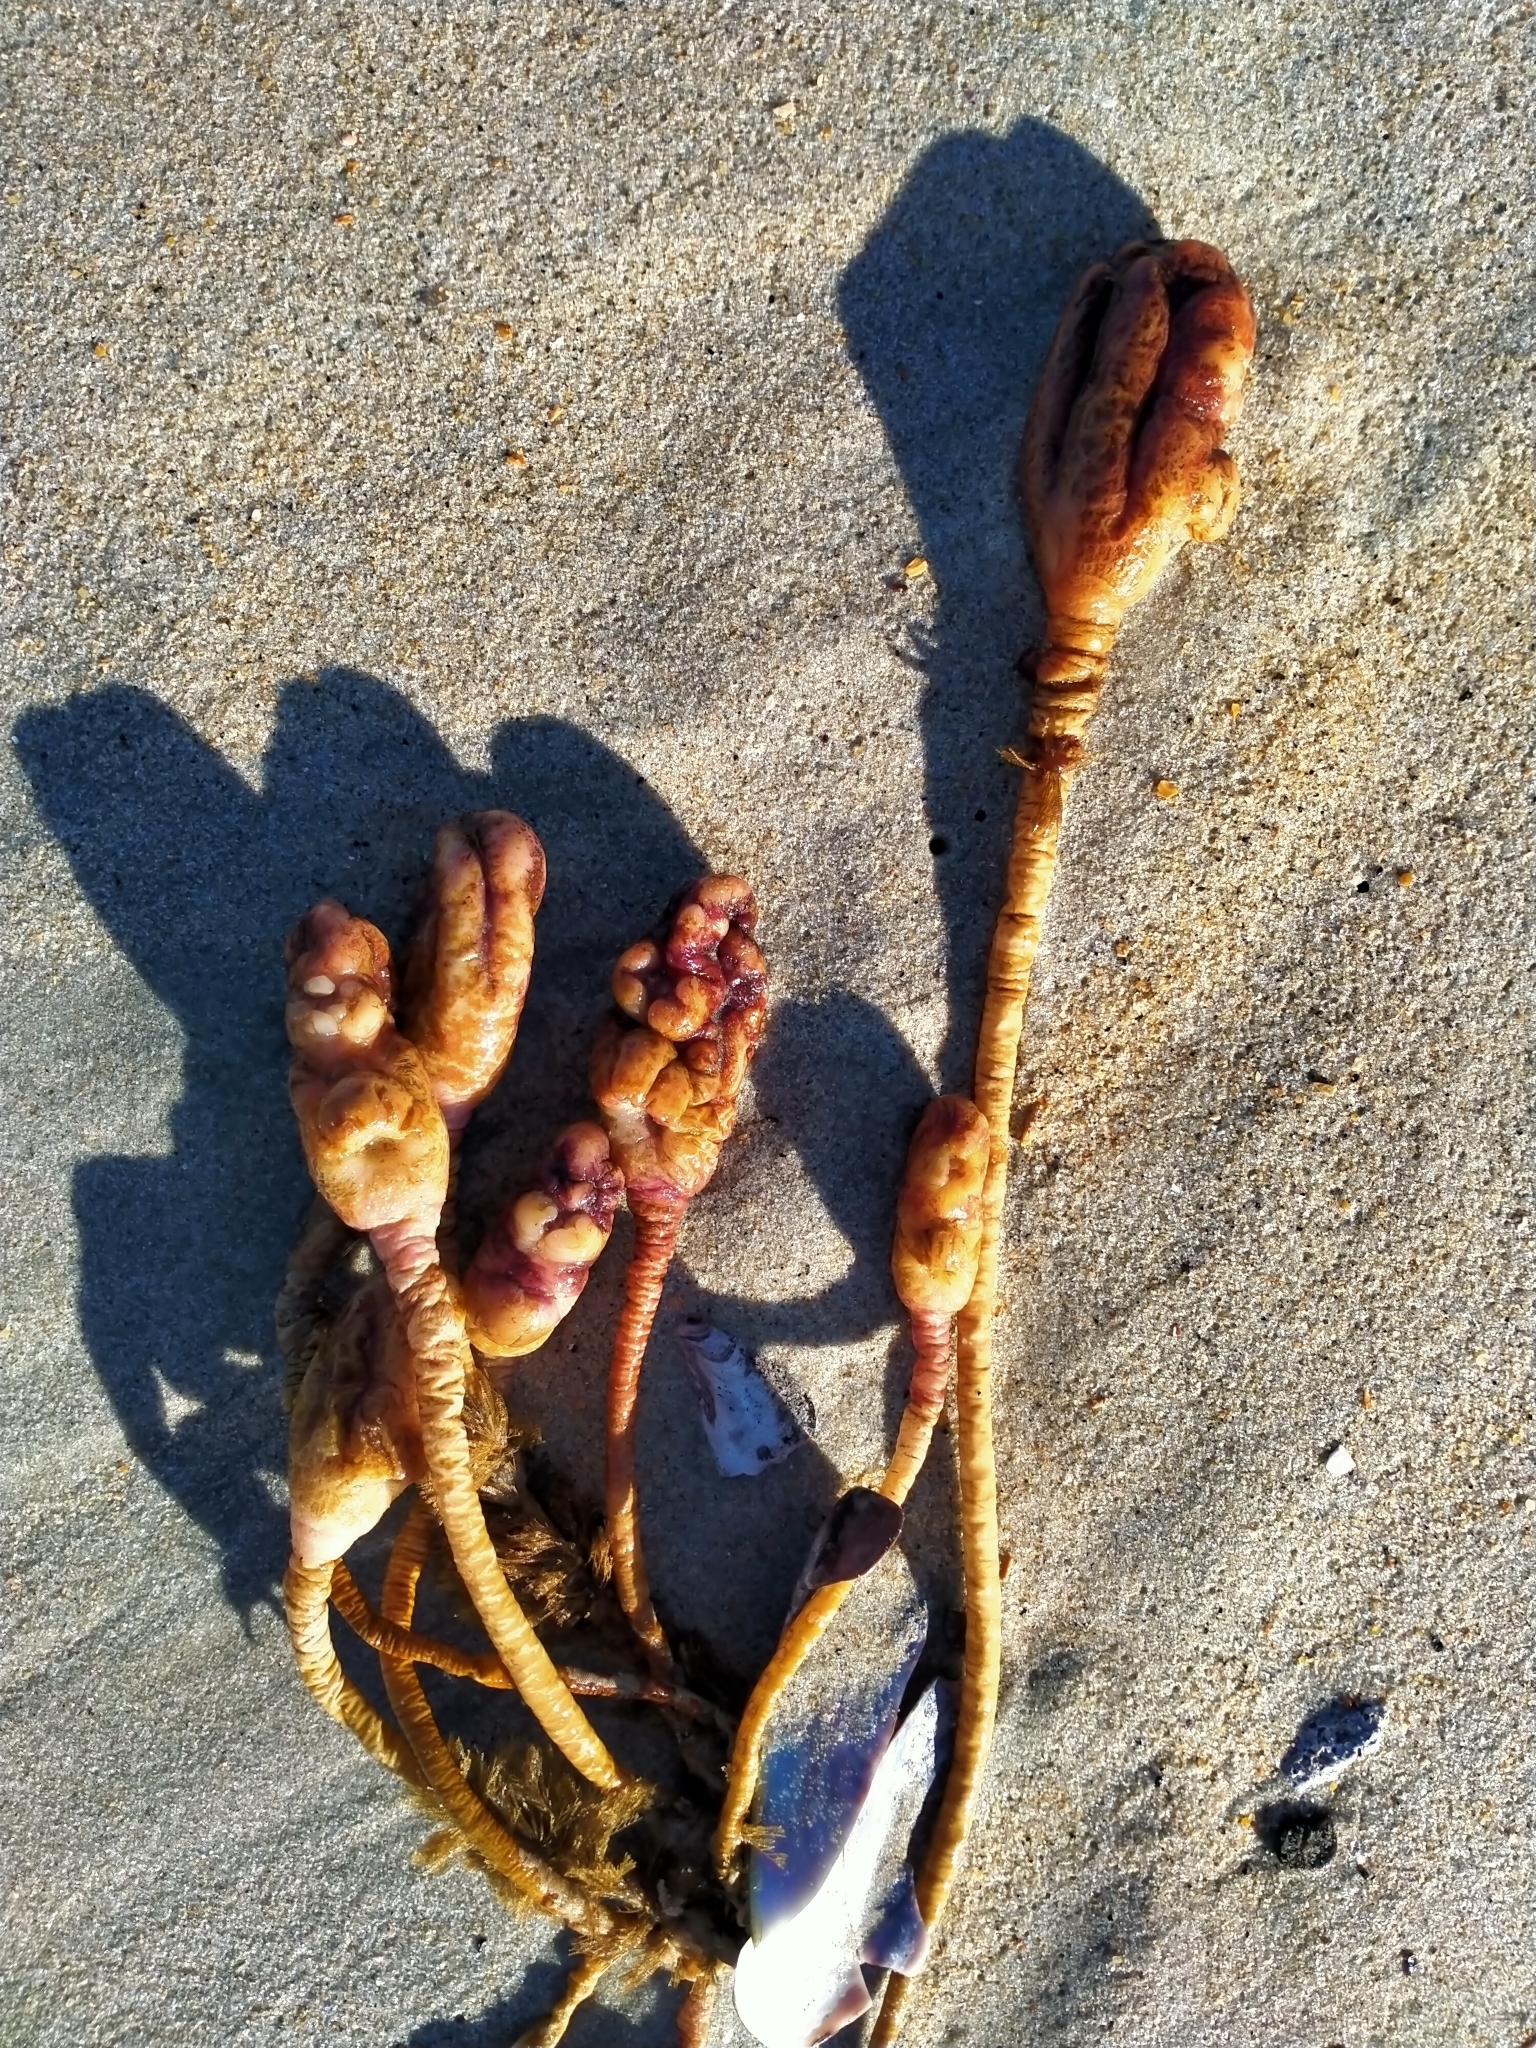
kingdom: Animalia
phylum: Chordata
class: Ascidiacea
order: Stolidobranchia
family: Pyuridae
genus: Pyura
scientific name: Pyura pachydermatina
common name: Sea tulip
